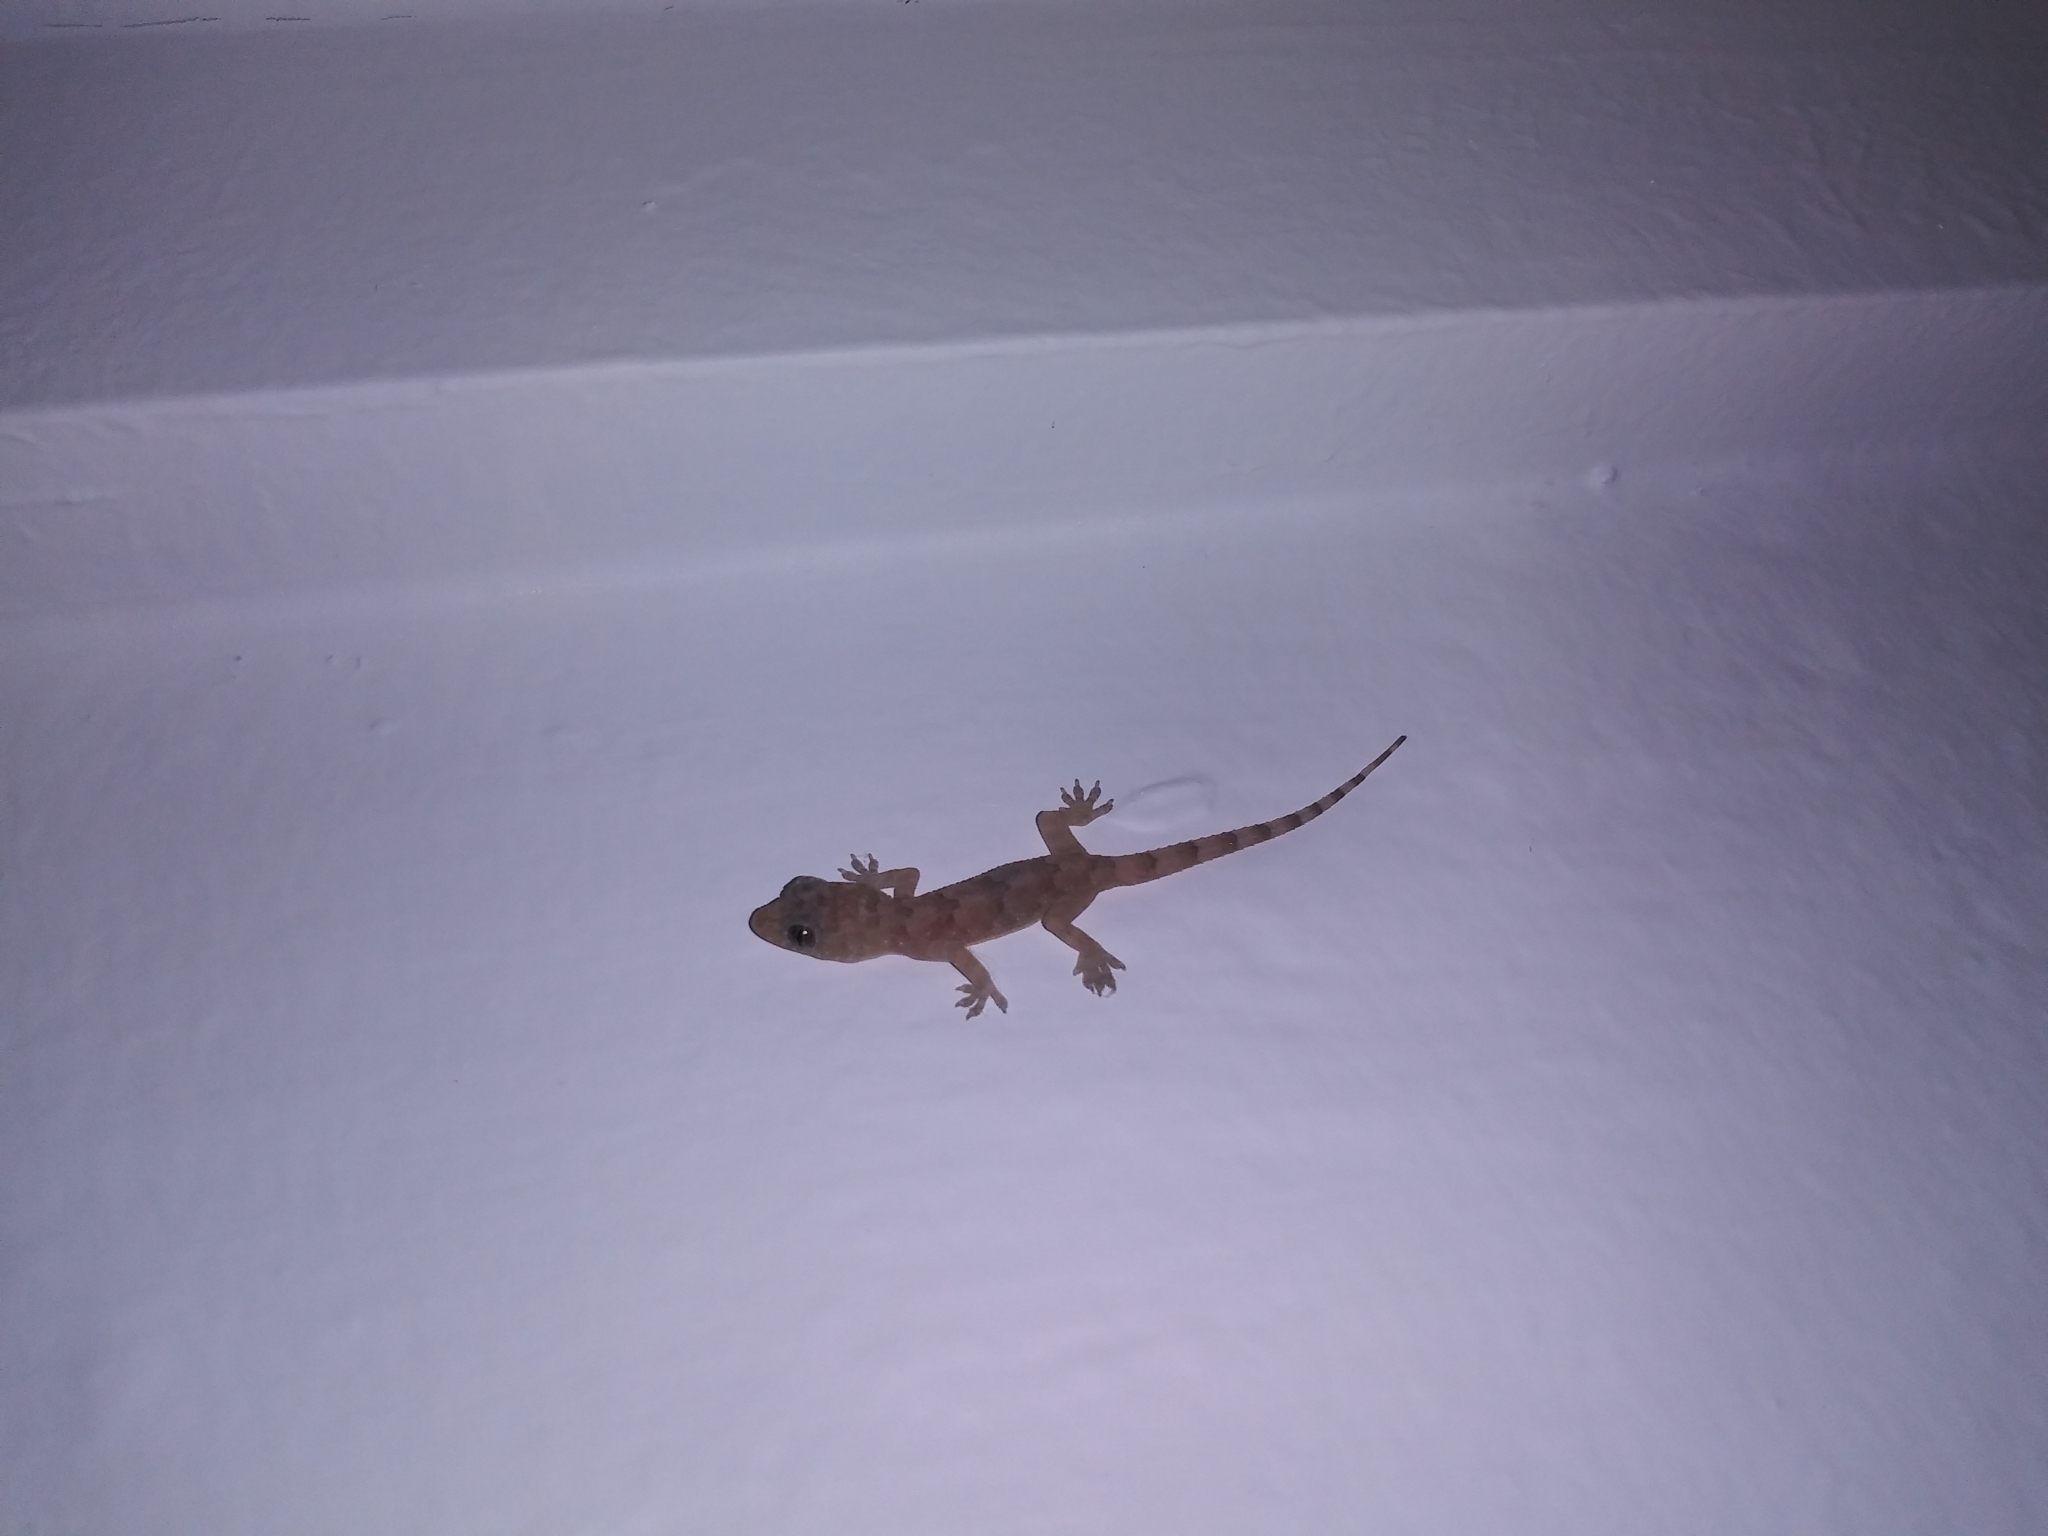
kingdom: Animalia
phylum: Chordata
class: Squamata
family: Gekkonidae
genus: Hemidactylus
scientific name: Hemidactylus mabouia
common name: House gecko
